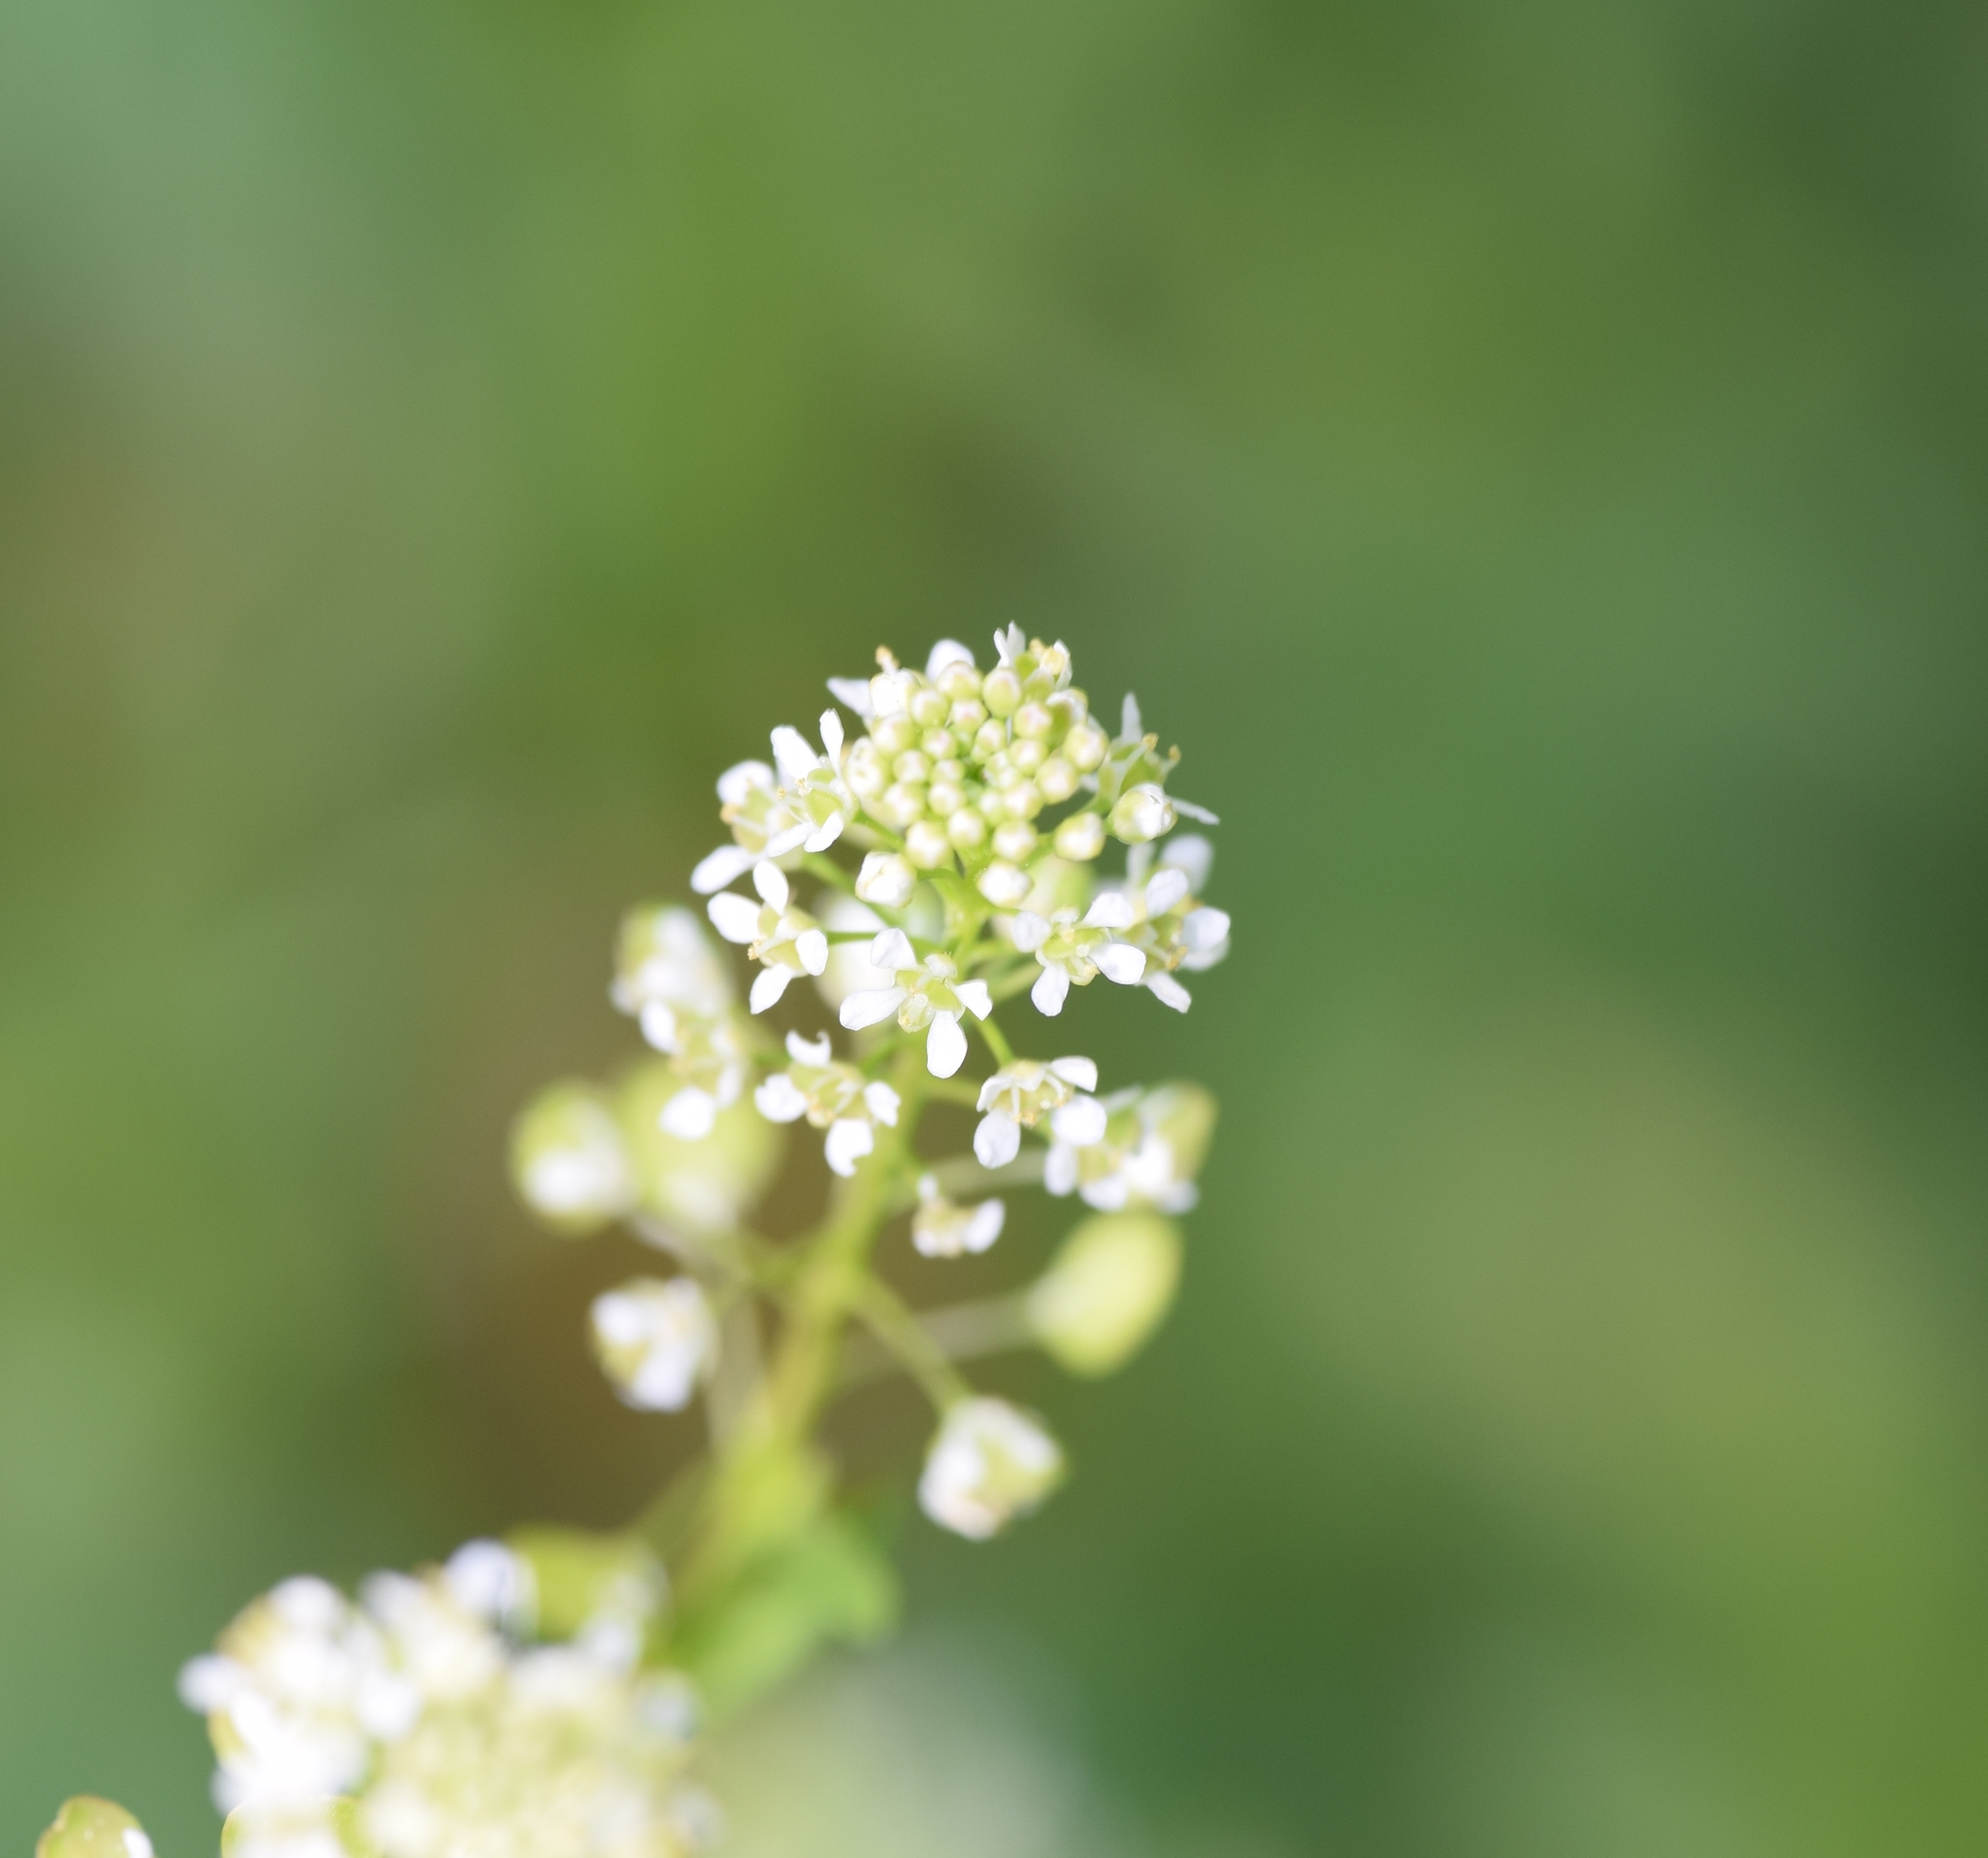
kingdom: Plantae
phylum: Tracheophyta
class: Magnoliopsida
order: Brassicales
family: Brassicaceae
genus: Lepidium
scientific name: Lepidium virginicum
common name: Least pepperwort
